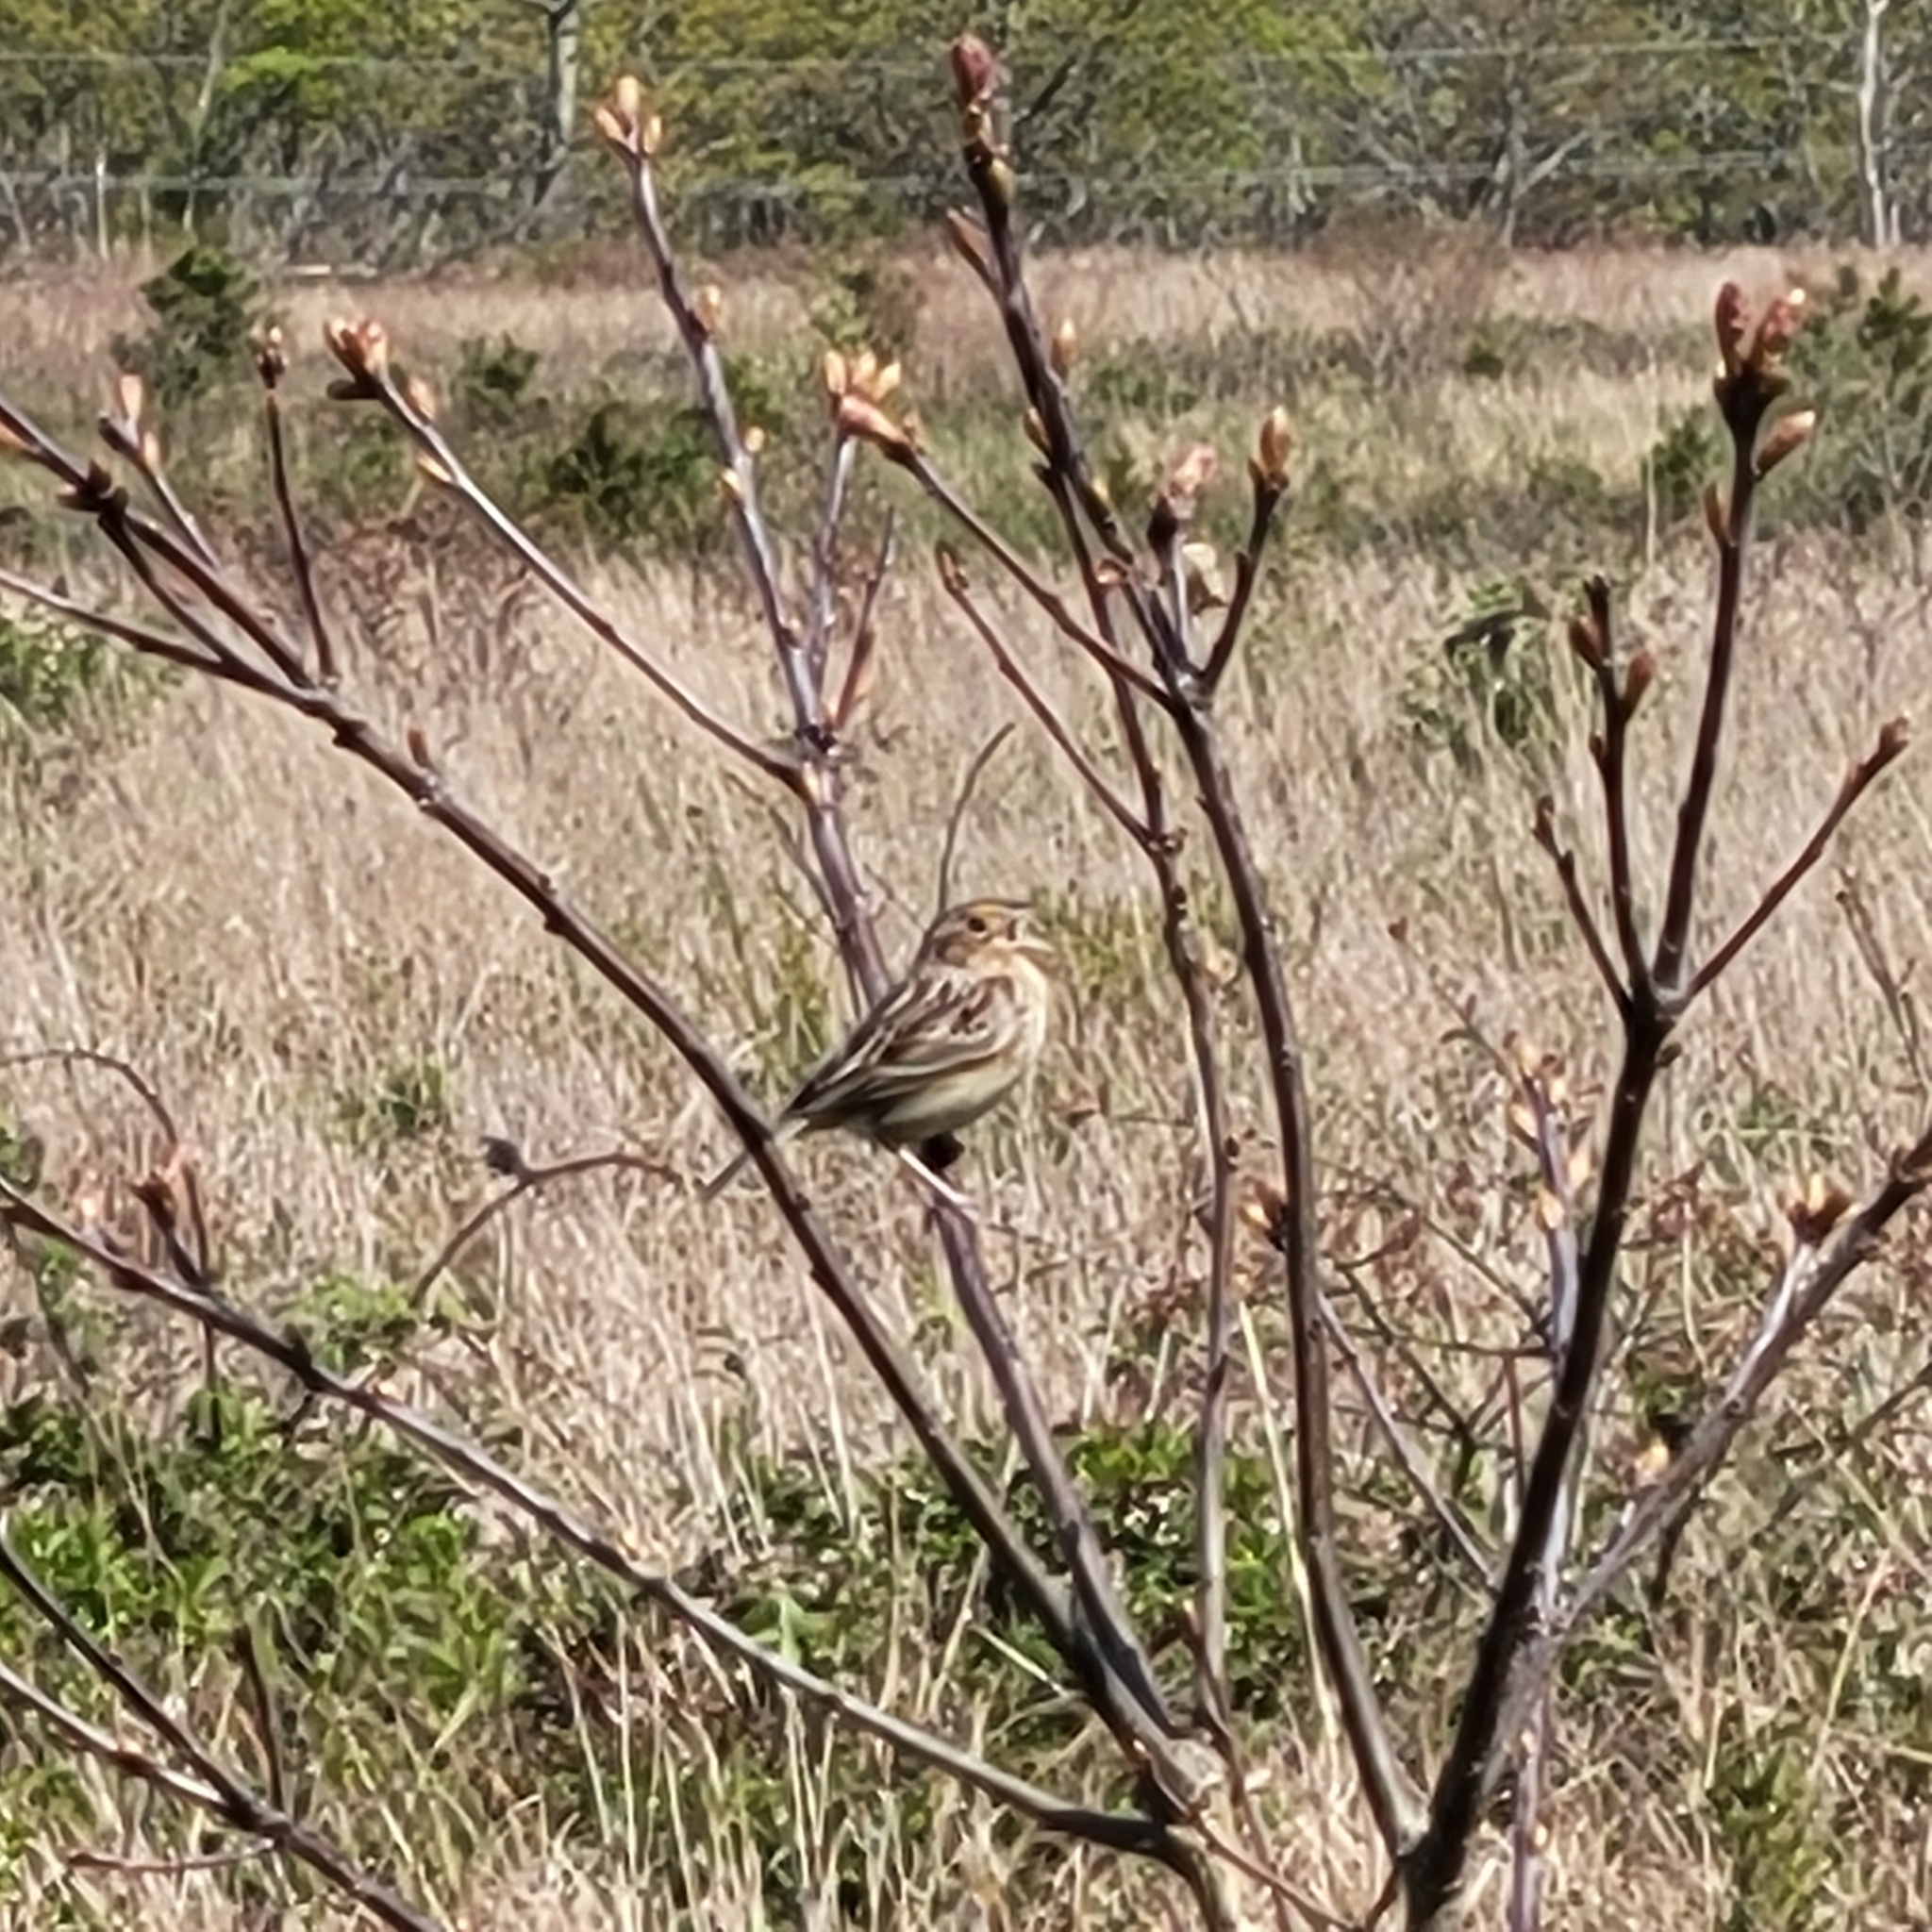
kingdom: Animalia
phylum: Chordata
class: Aves
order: Passeriformes
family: Passerellidae
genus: Ammodramus
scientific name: Ammodramus savannarum
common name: Grasshopper sparrow
